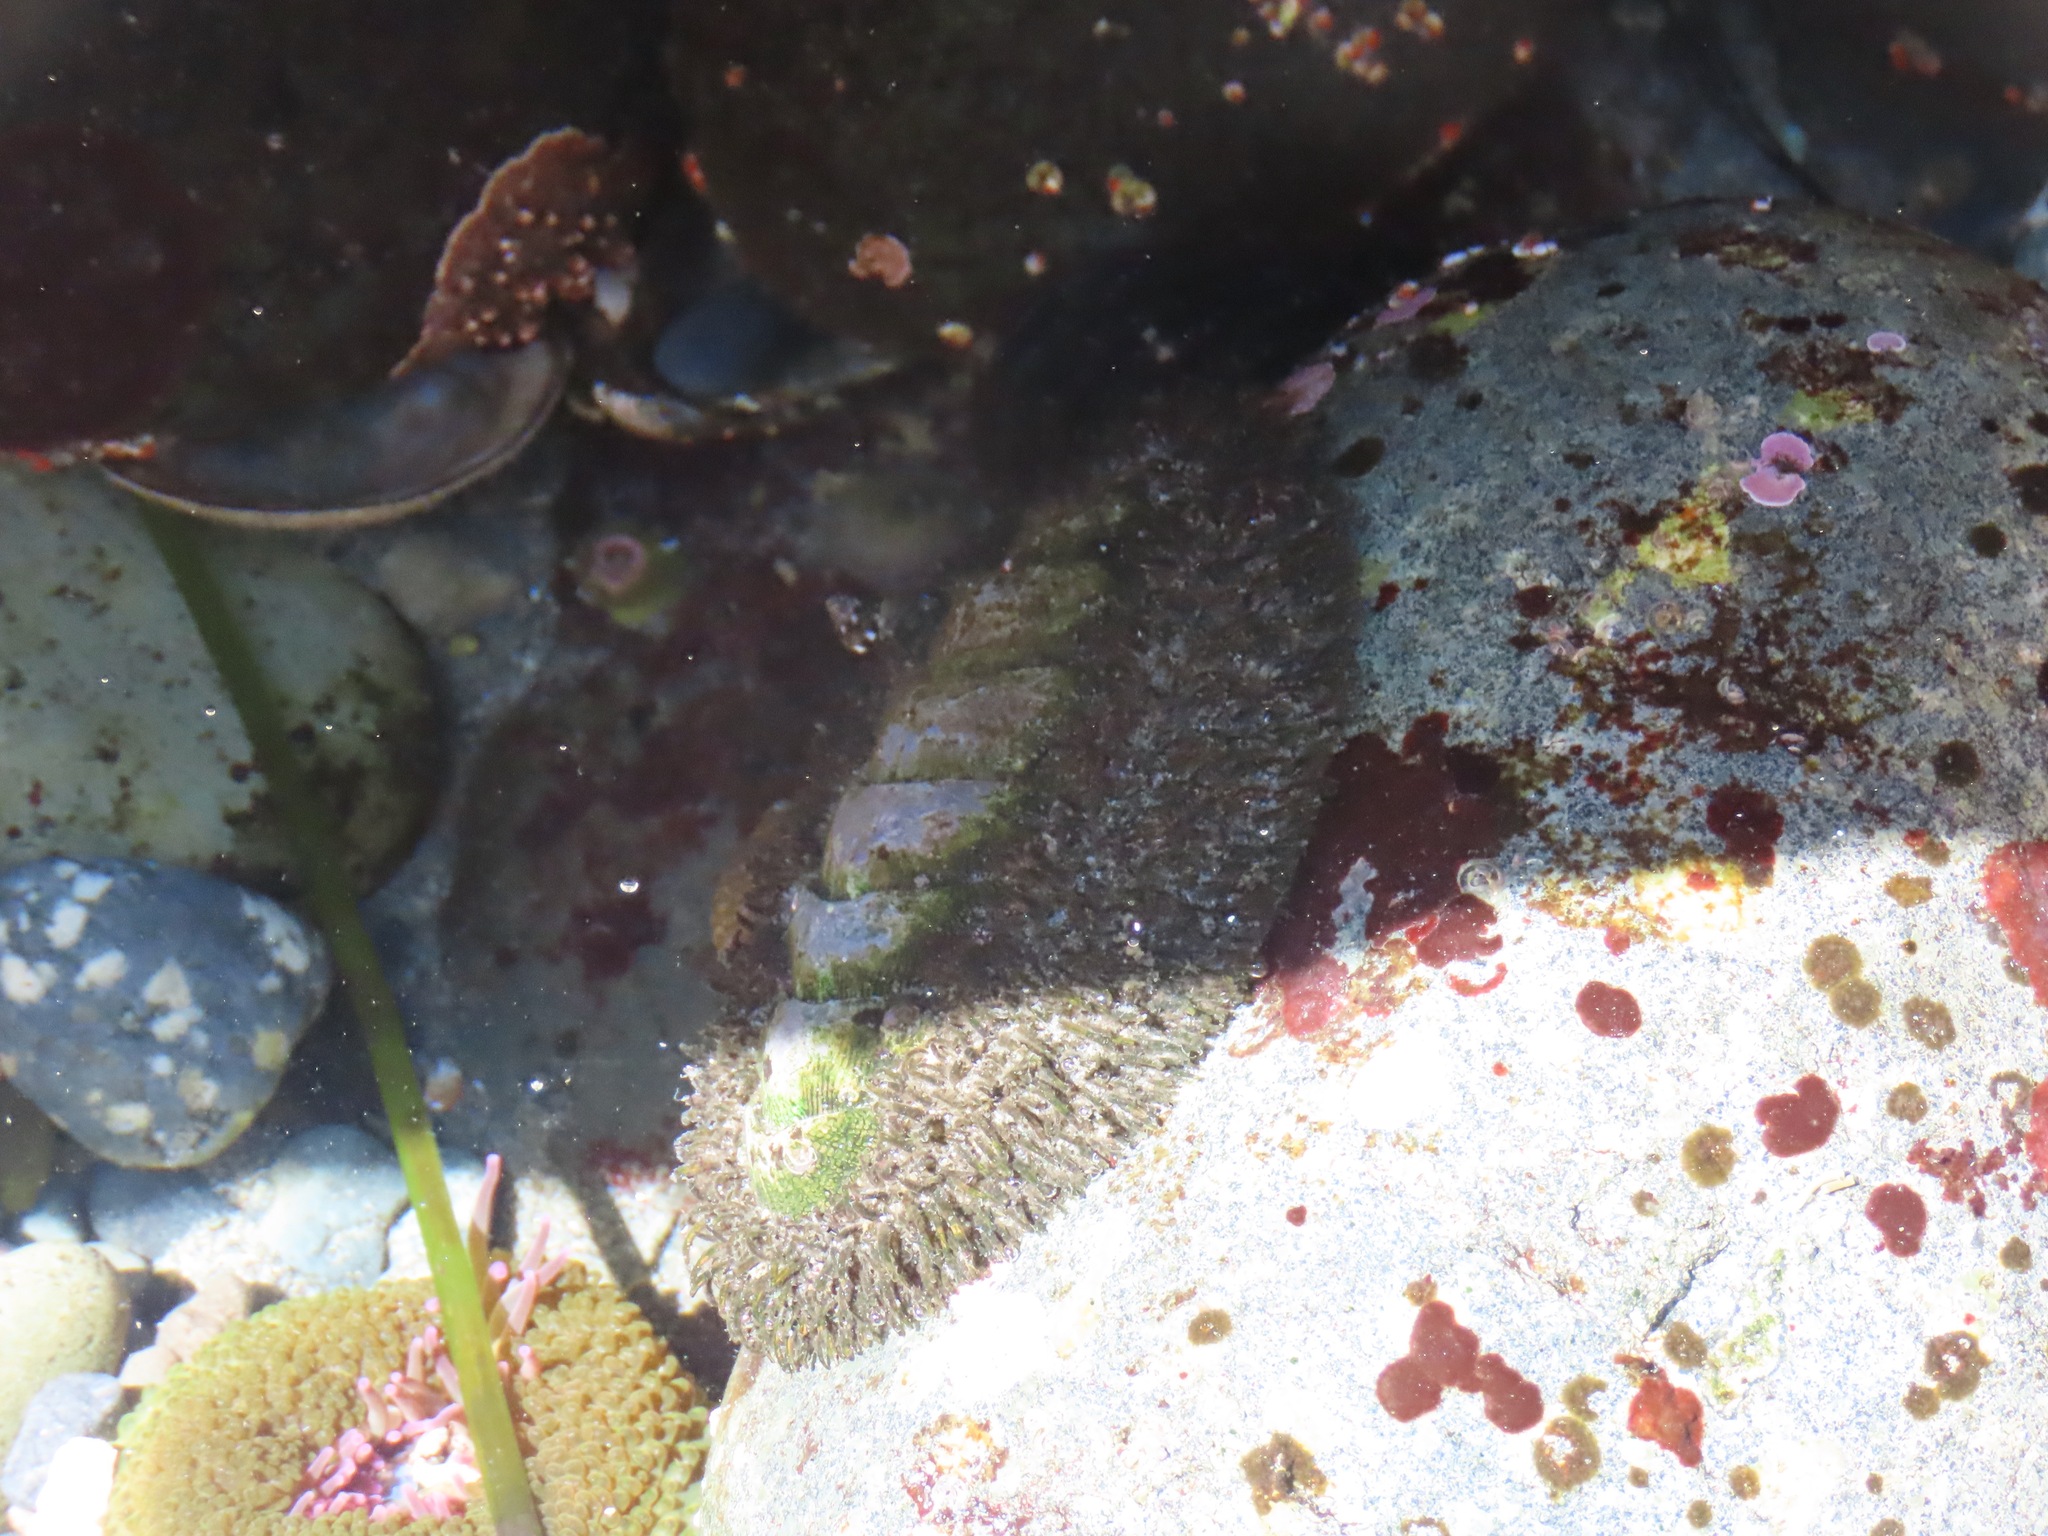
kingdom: Animalia
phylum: Mollusca
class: Polyplacophora
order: Chitonida
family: Mopaliidae
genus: Mopalia
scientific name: Mopalia muscosa
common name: Mossy chiton
